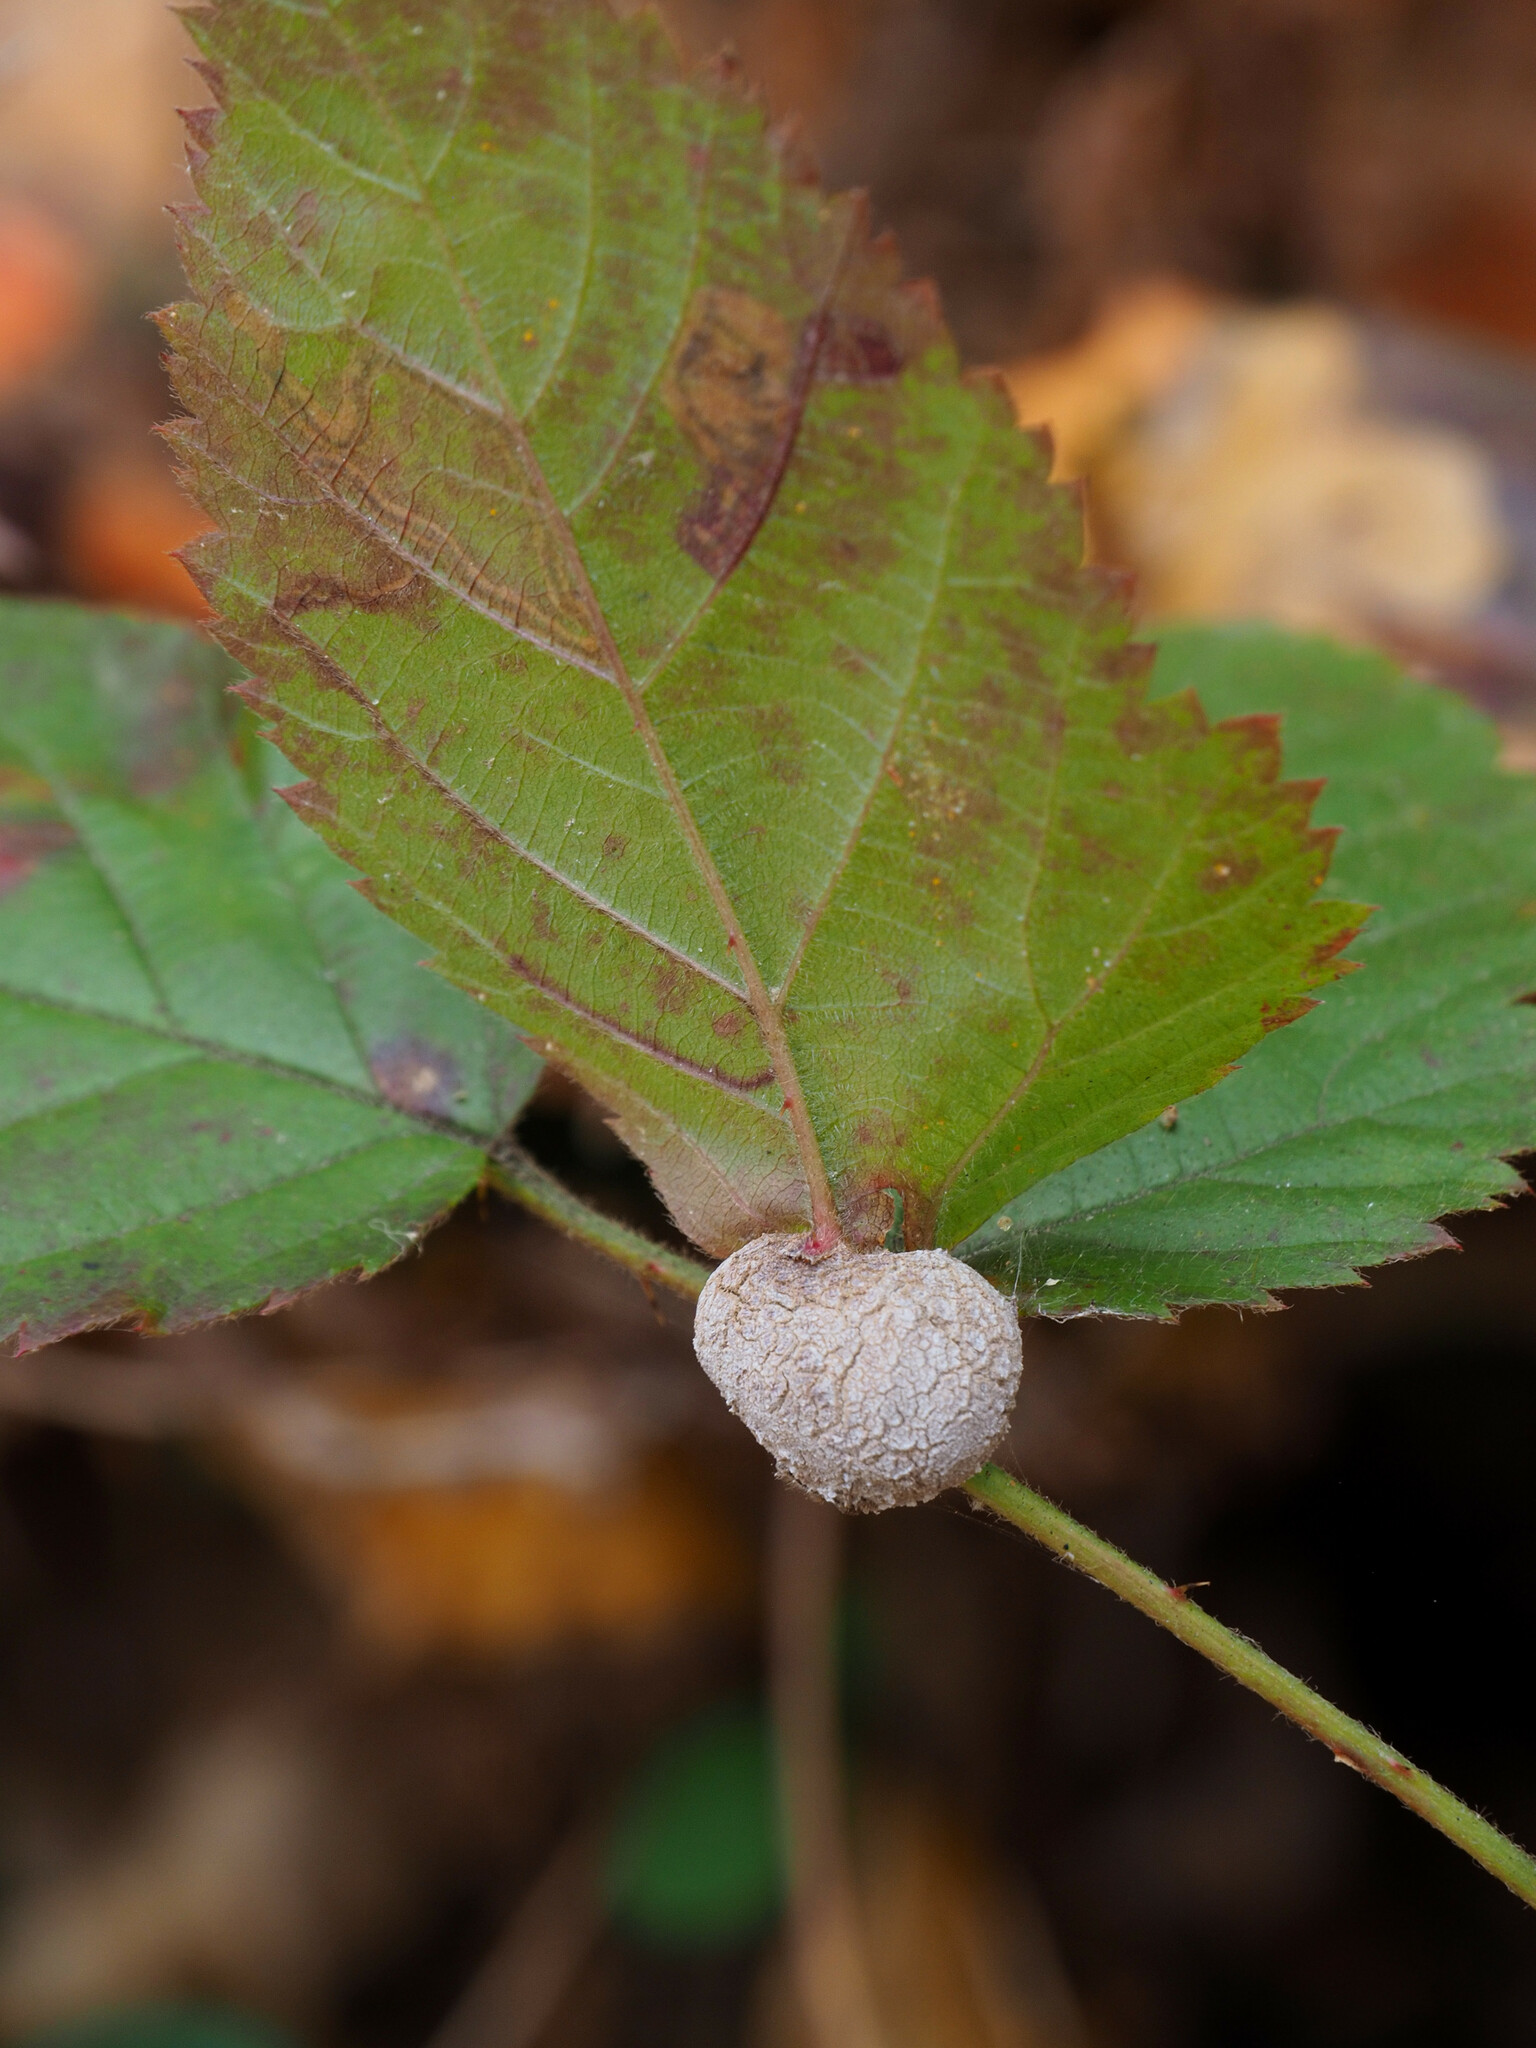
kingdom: Animalia
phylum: Arthropoda
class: Insecta
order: Diptera
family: Cecidomyiidae
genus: Neolasioptera
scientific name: Neolasioptera farinosa
